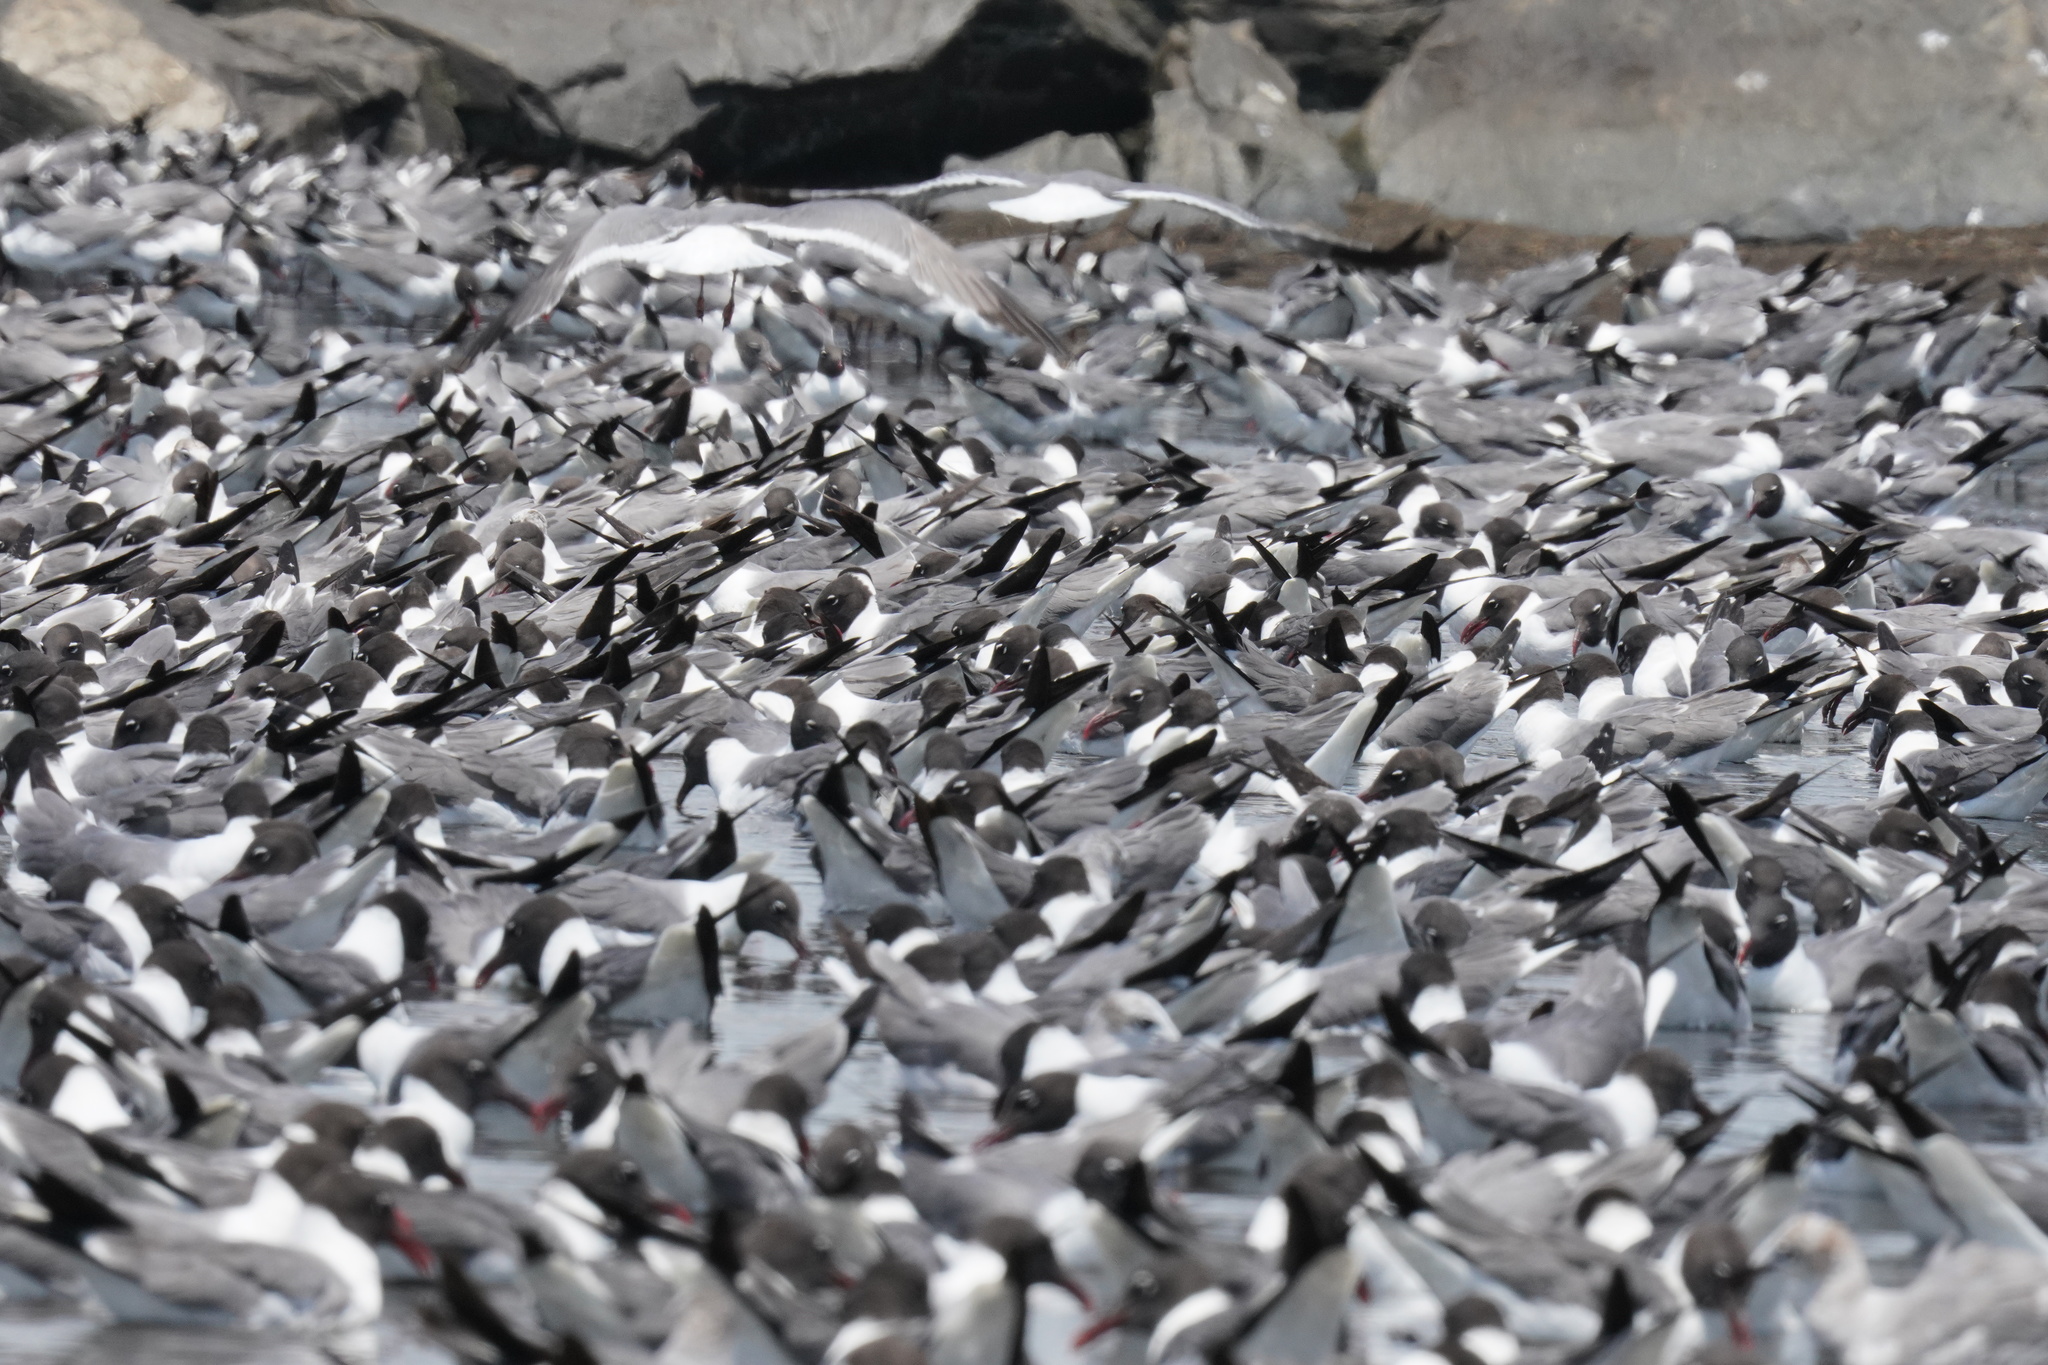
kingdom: Animalia
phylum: Chordata
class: Aves
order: Charadriiformes
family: Laridae
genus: Leucophaeus
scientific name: Leucophaeus atricilla
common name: Laughing gull
